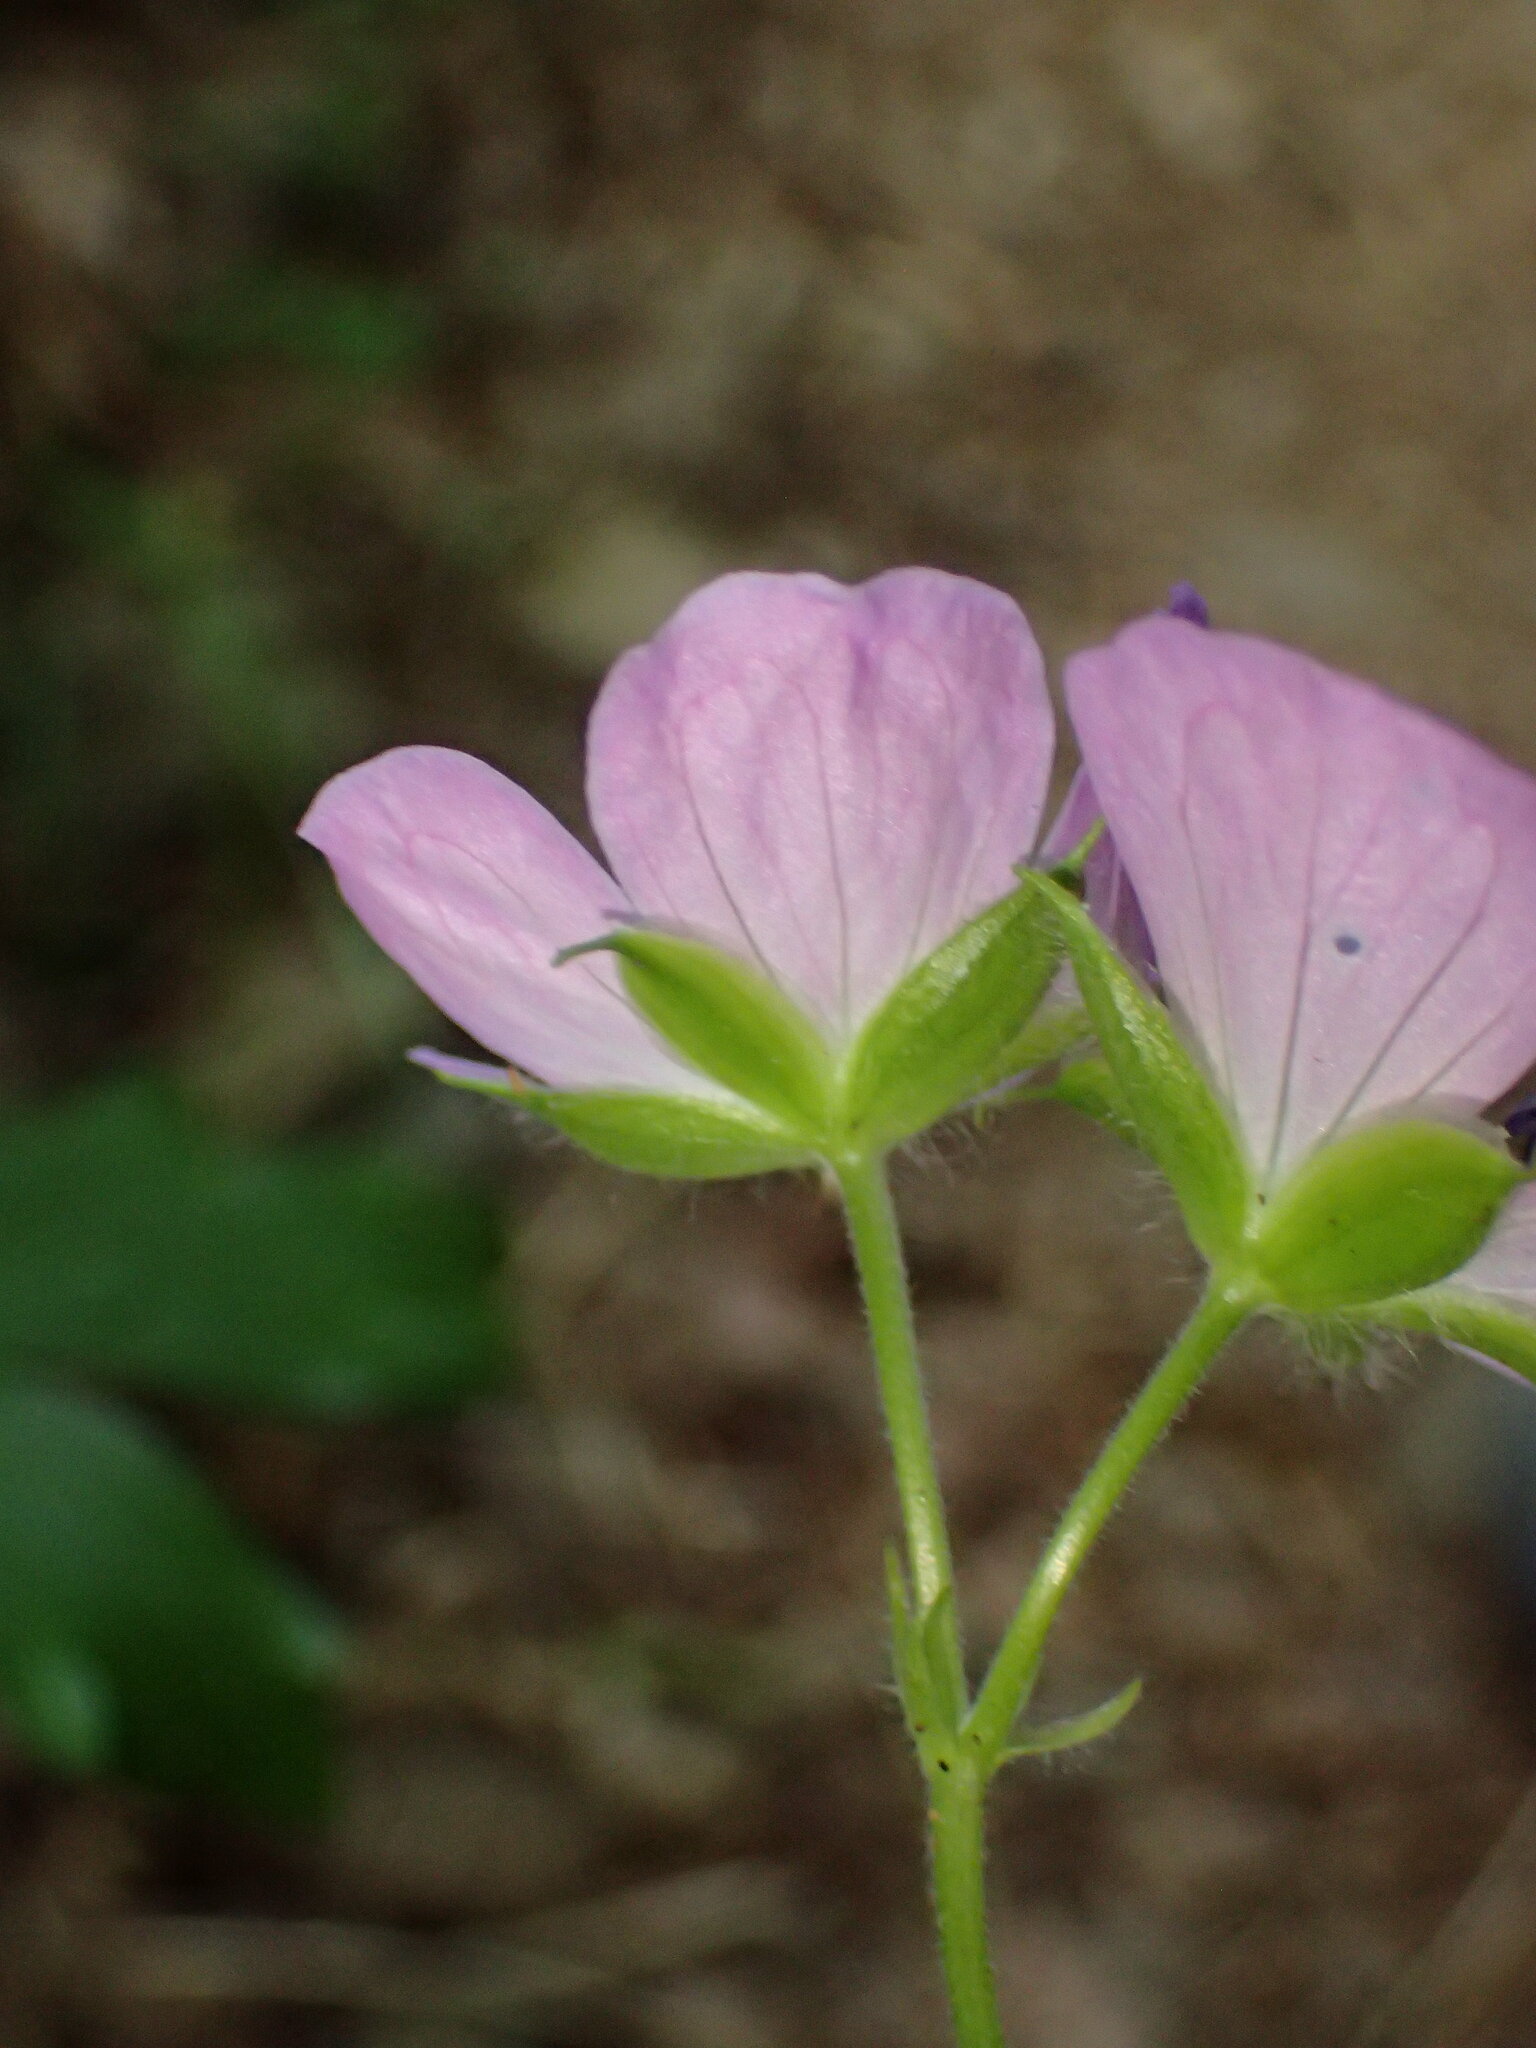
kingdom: Plantae
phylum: Tracheophyta
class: Magnoliopsida
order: Geraniales
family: Geraniaceae
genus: Geranium
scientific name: Geranium maculatum
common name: Spotted geranium
